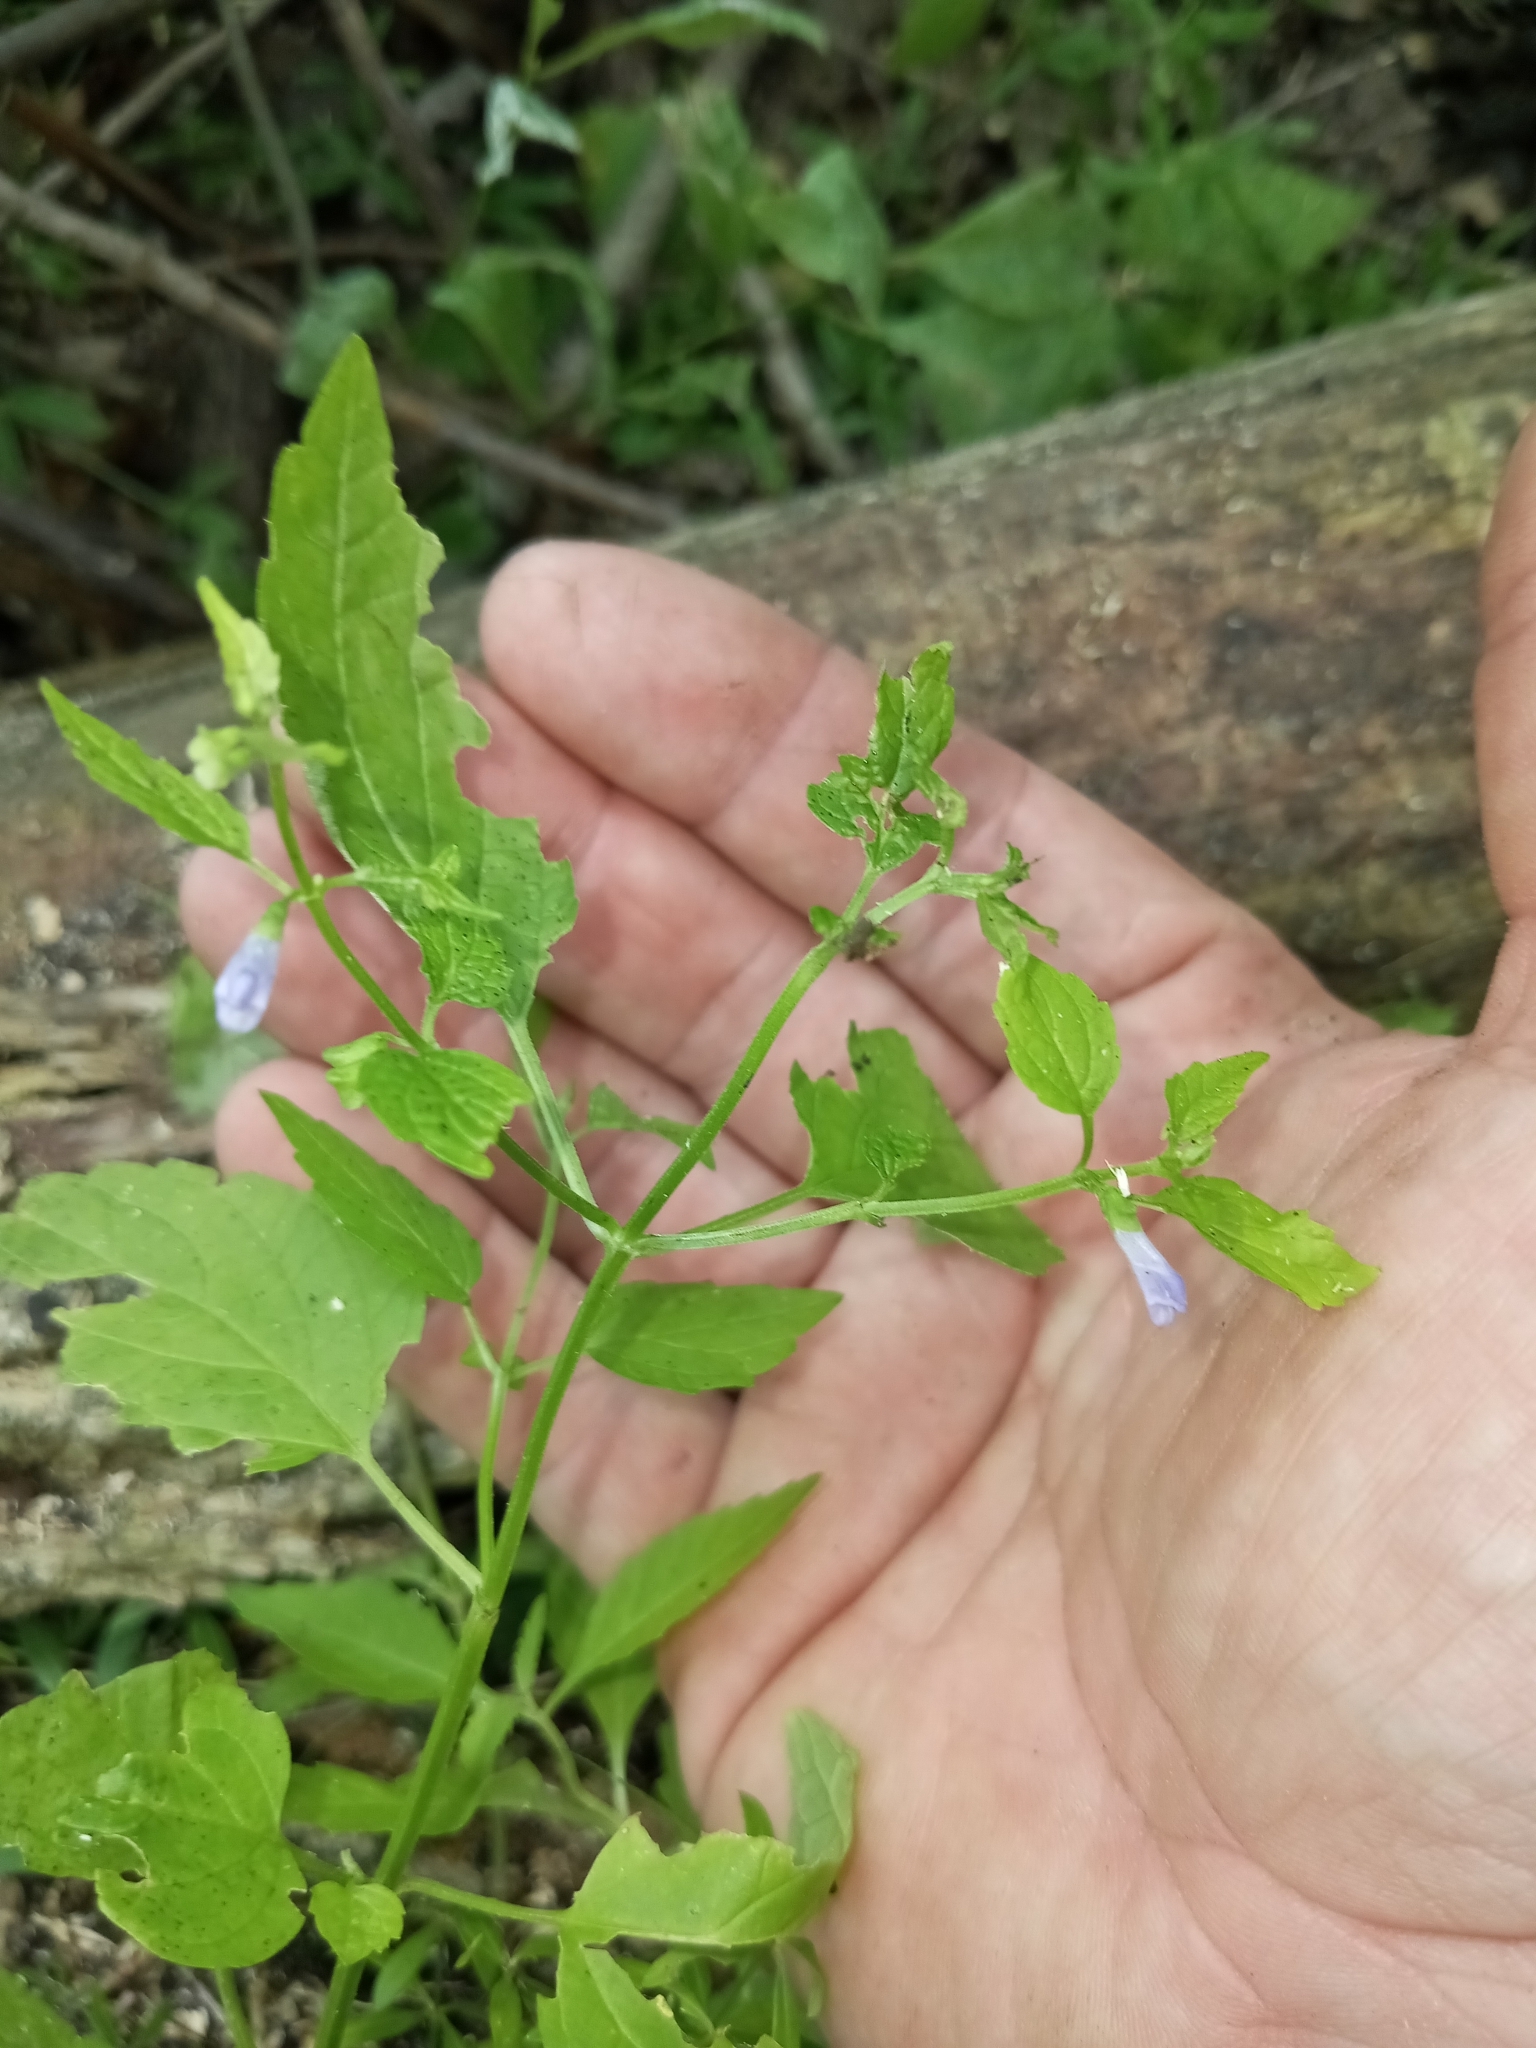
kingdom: Plantae
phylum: Tracheophyta
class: Magnoliopsida
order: Lamiales
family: Lamiaceae
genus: Scutellaria
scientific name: Scutellaria lateriflora
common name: Blue skullcap
